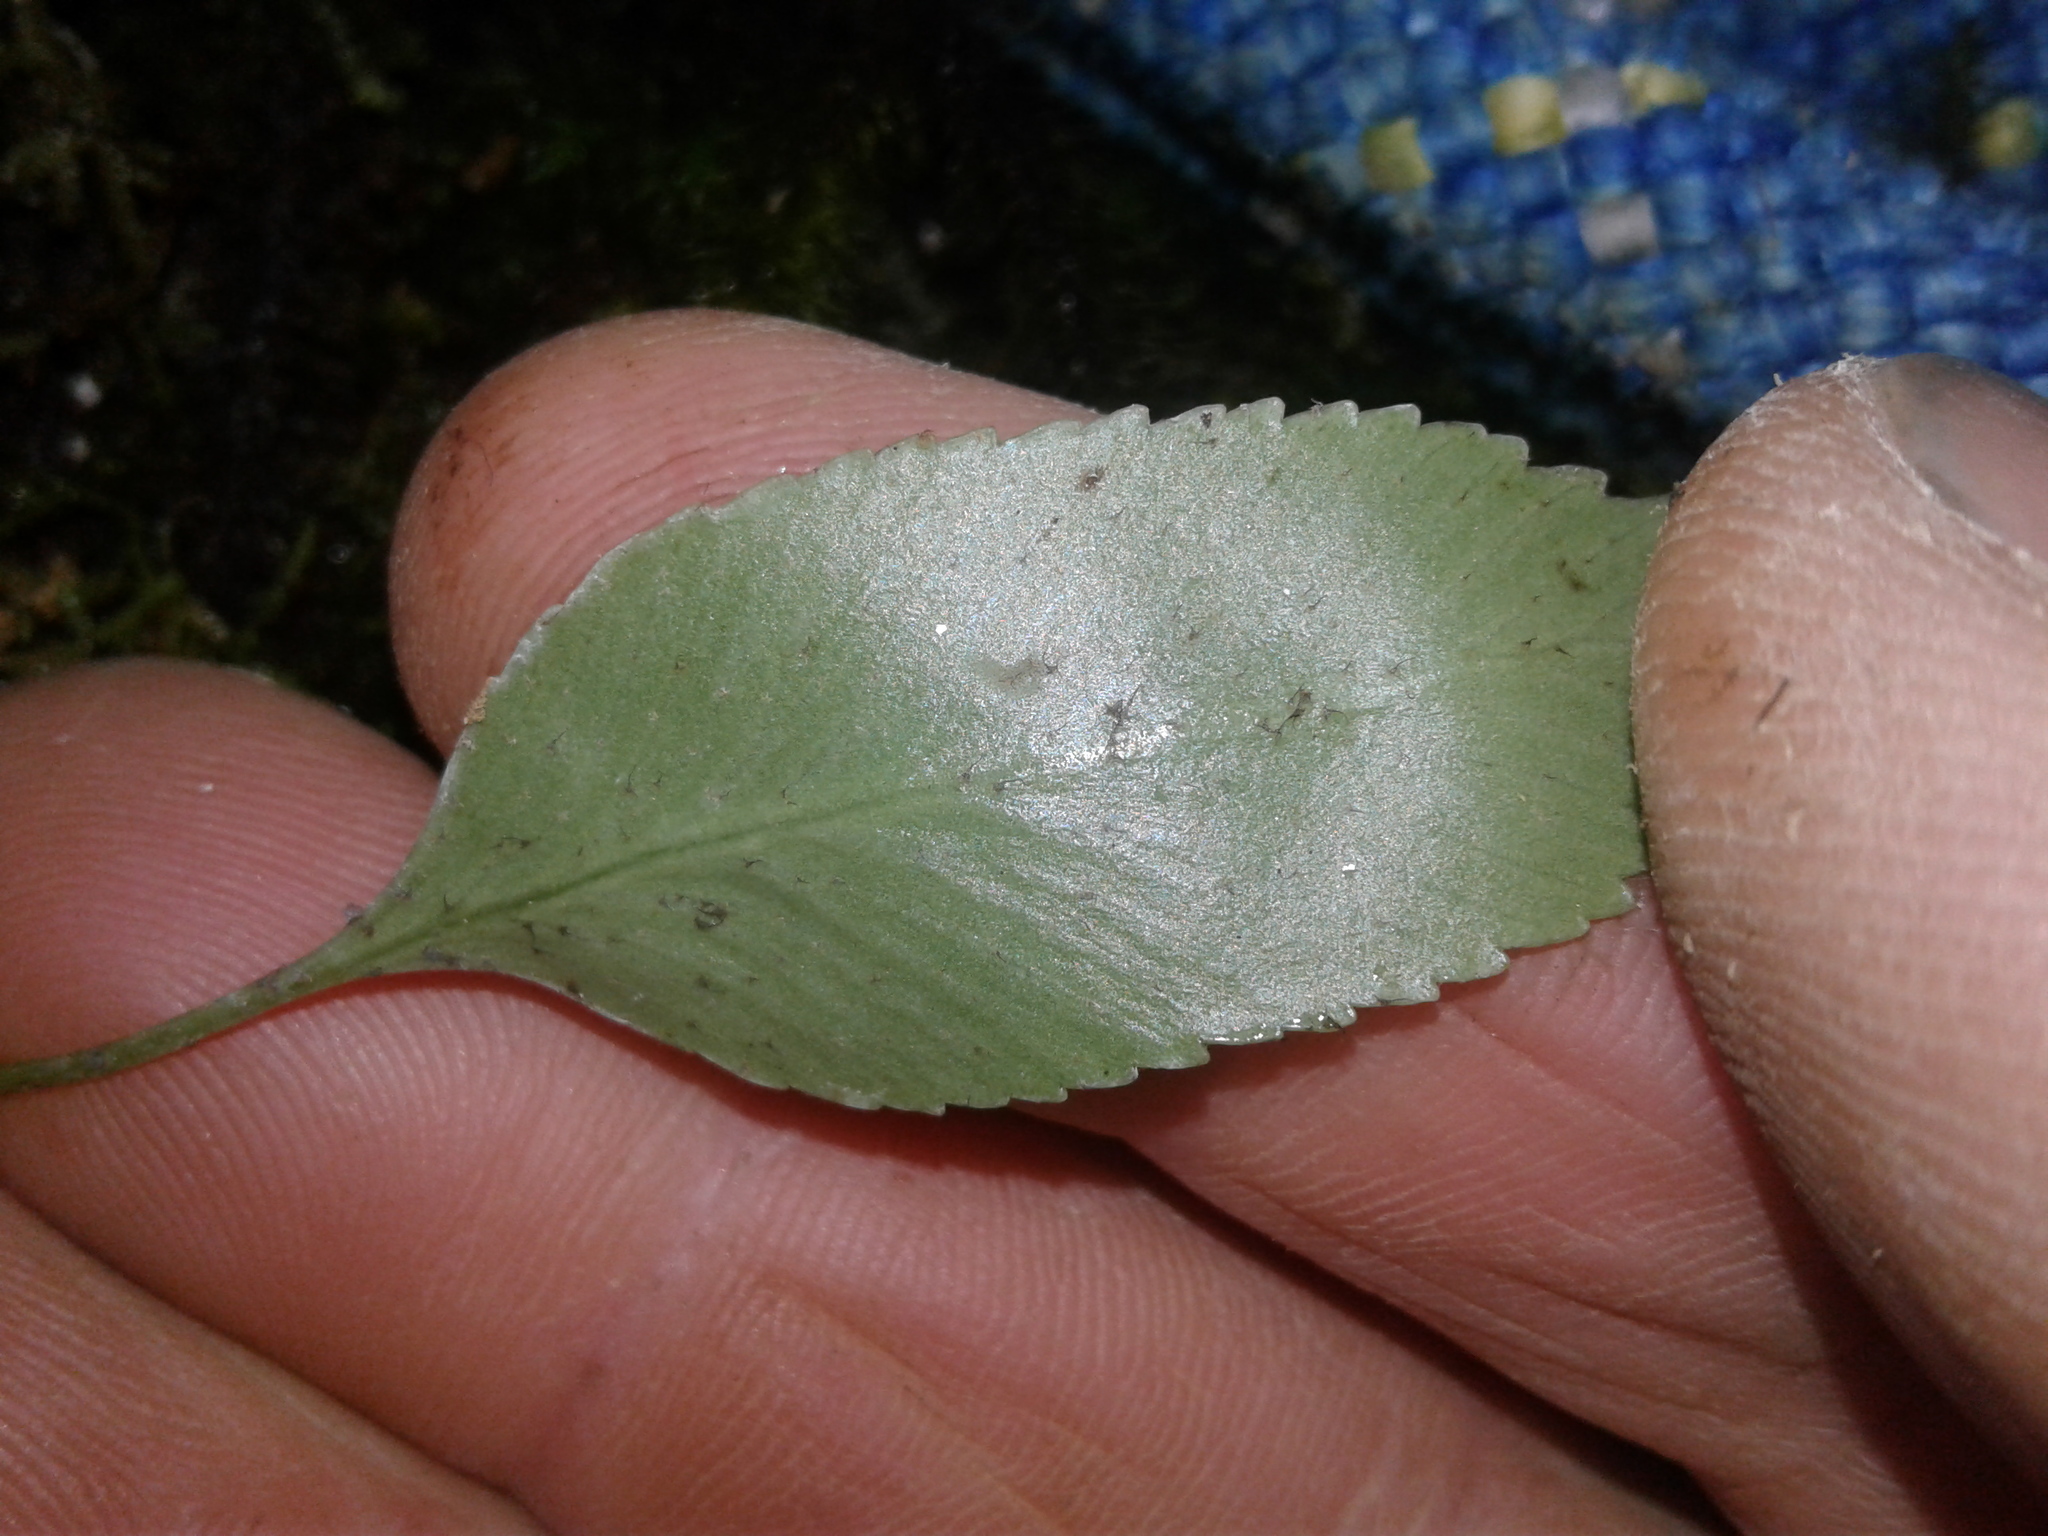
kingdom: Plantae
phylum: Tracheophyta
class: Polypodiopsida
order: Polypodiales
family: Aspleniaceae
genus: Asplenium
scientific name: Asplenium lepidotum
